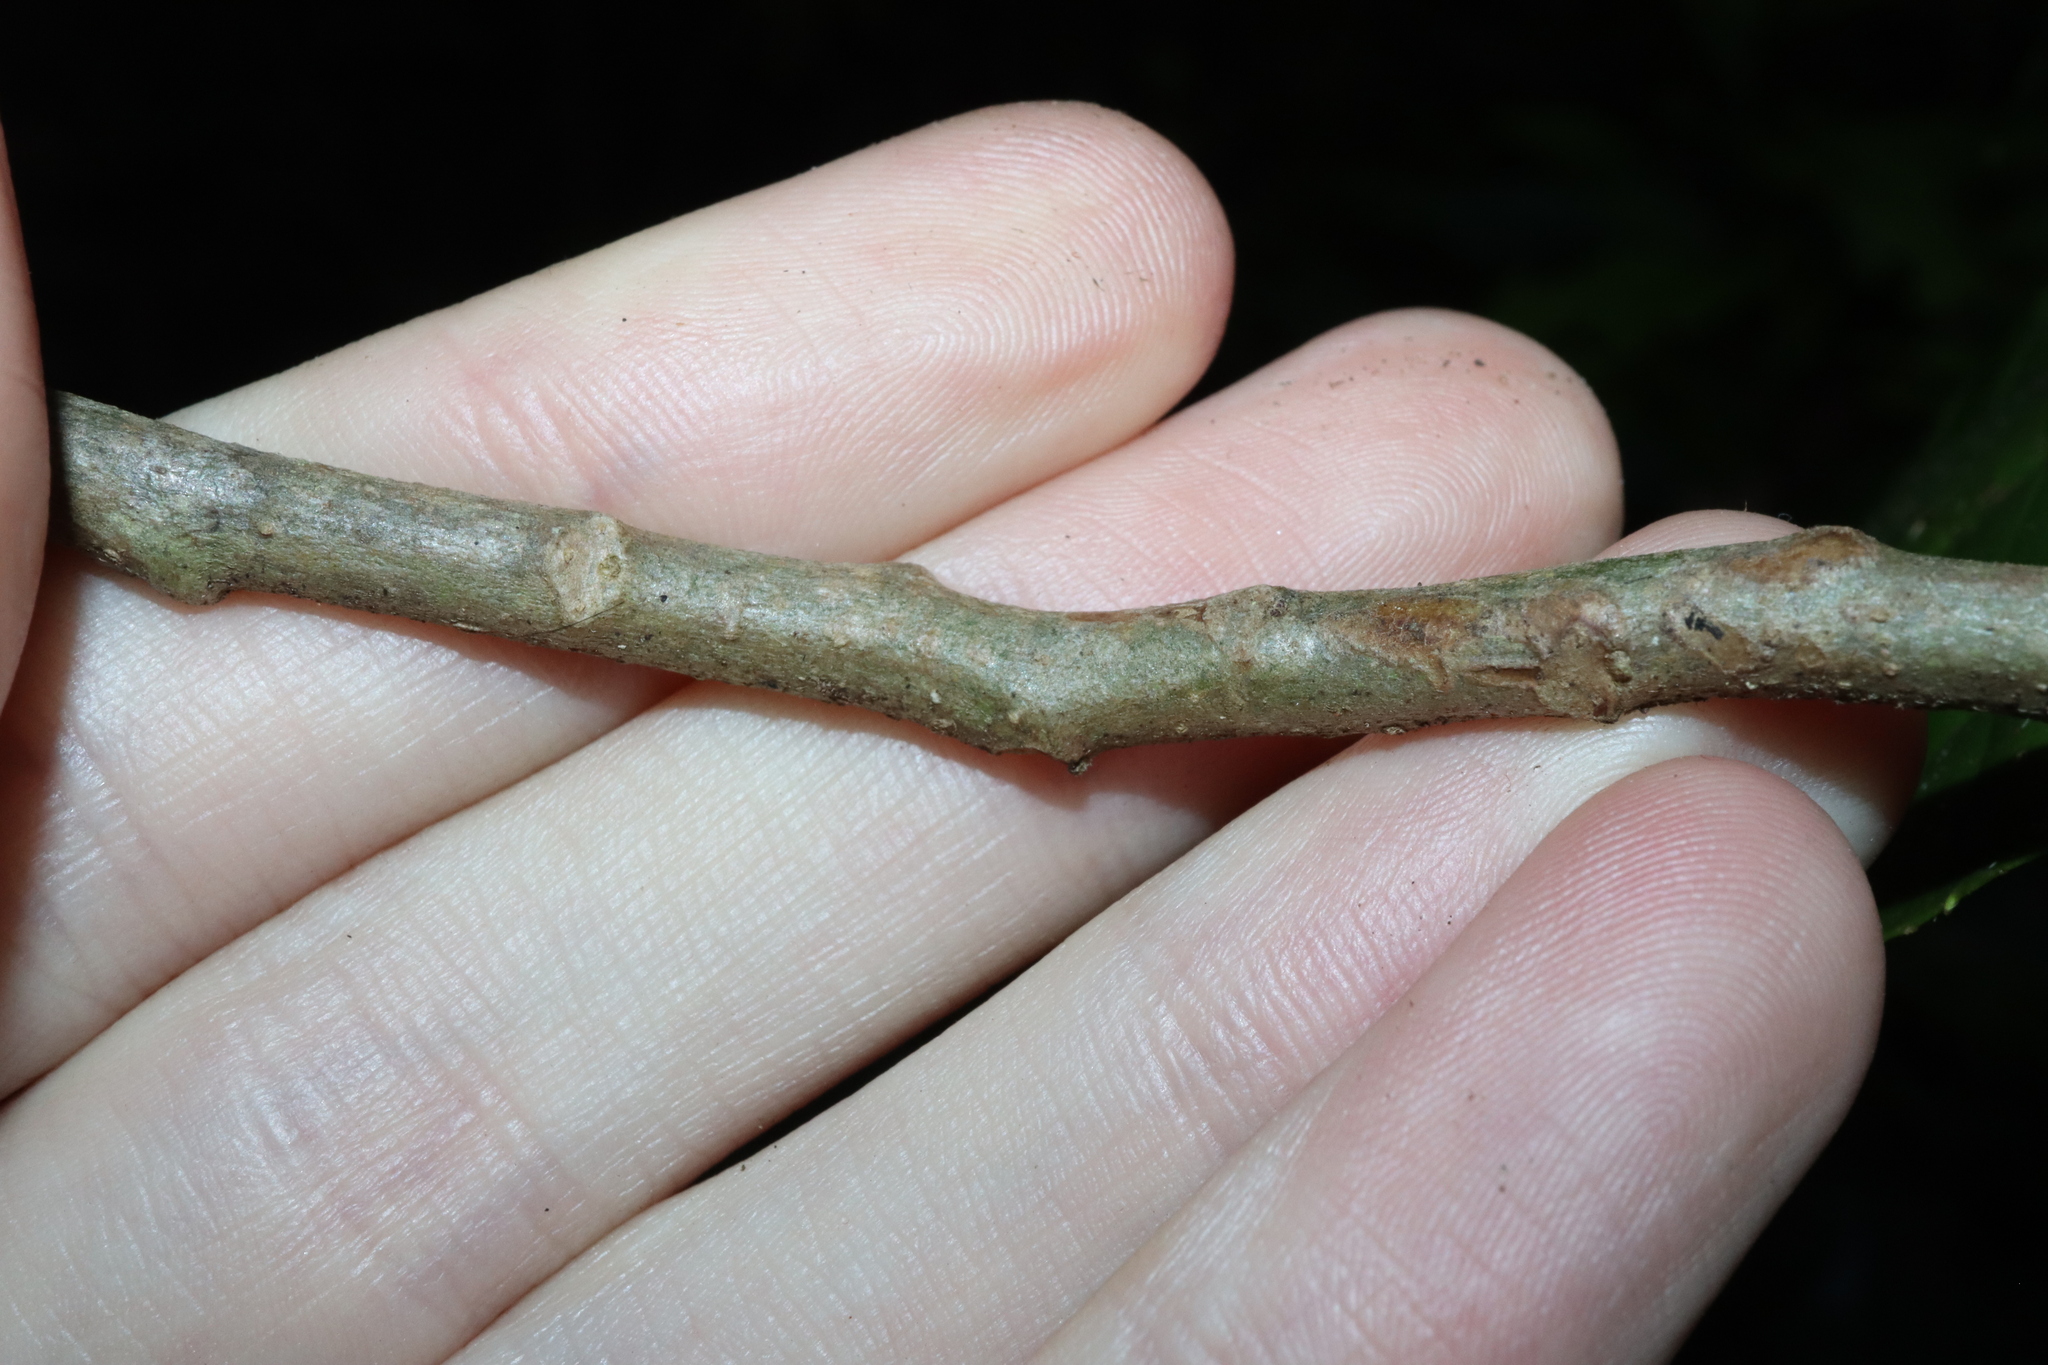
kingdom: Plantae
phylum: Tracheophyta
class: Magnoliopsida
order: Asterales
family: Rousseaceae
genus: Abrophyllum
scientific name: Abrophyllum ornans
